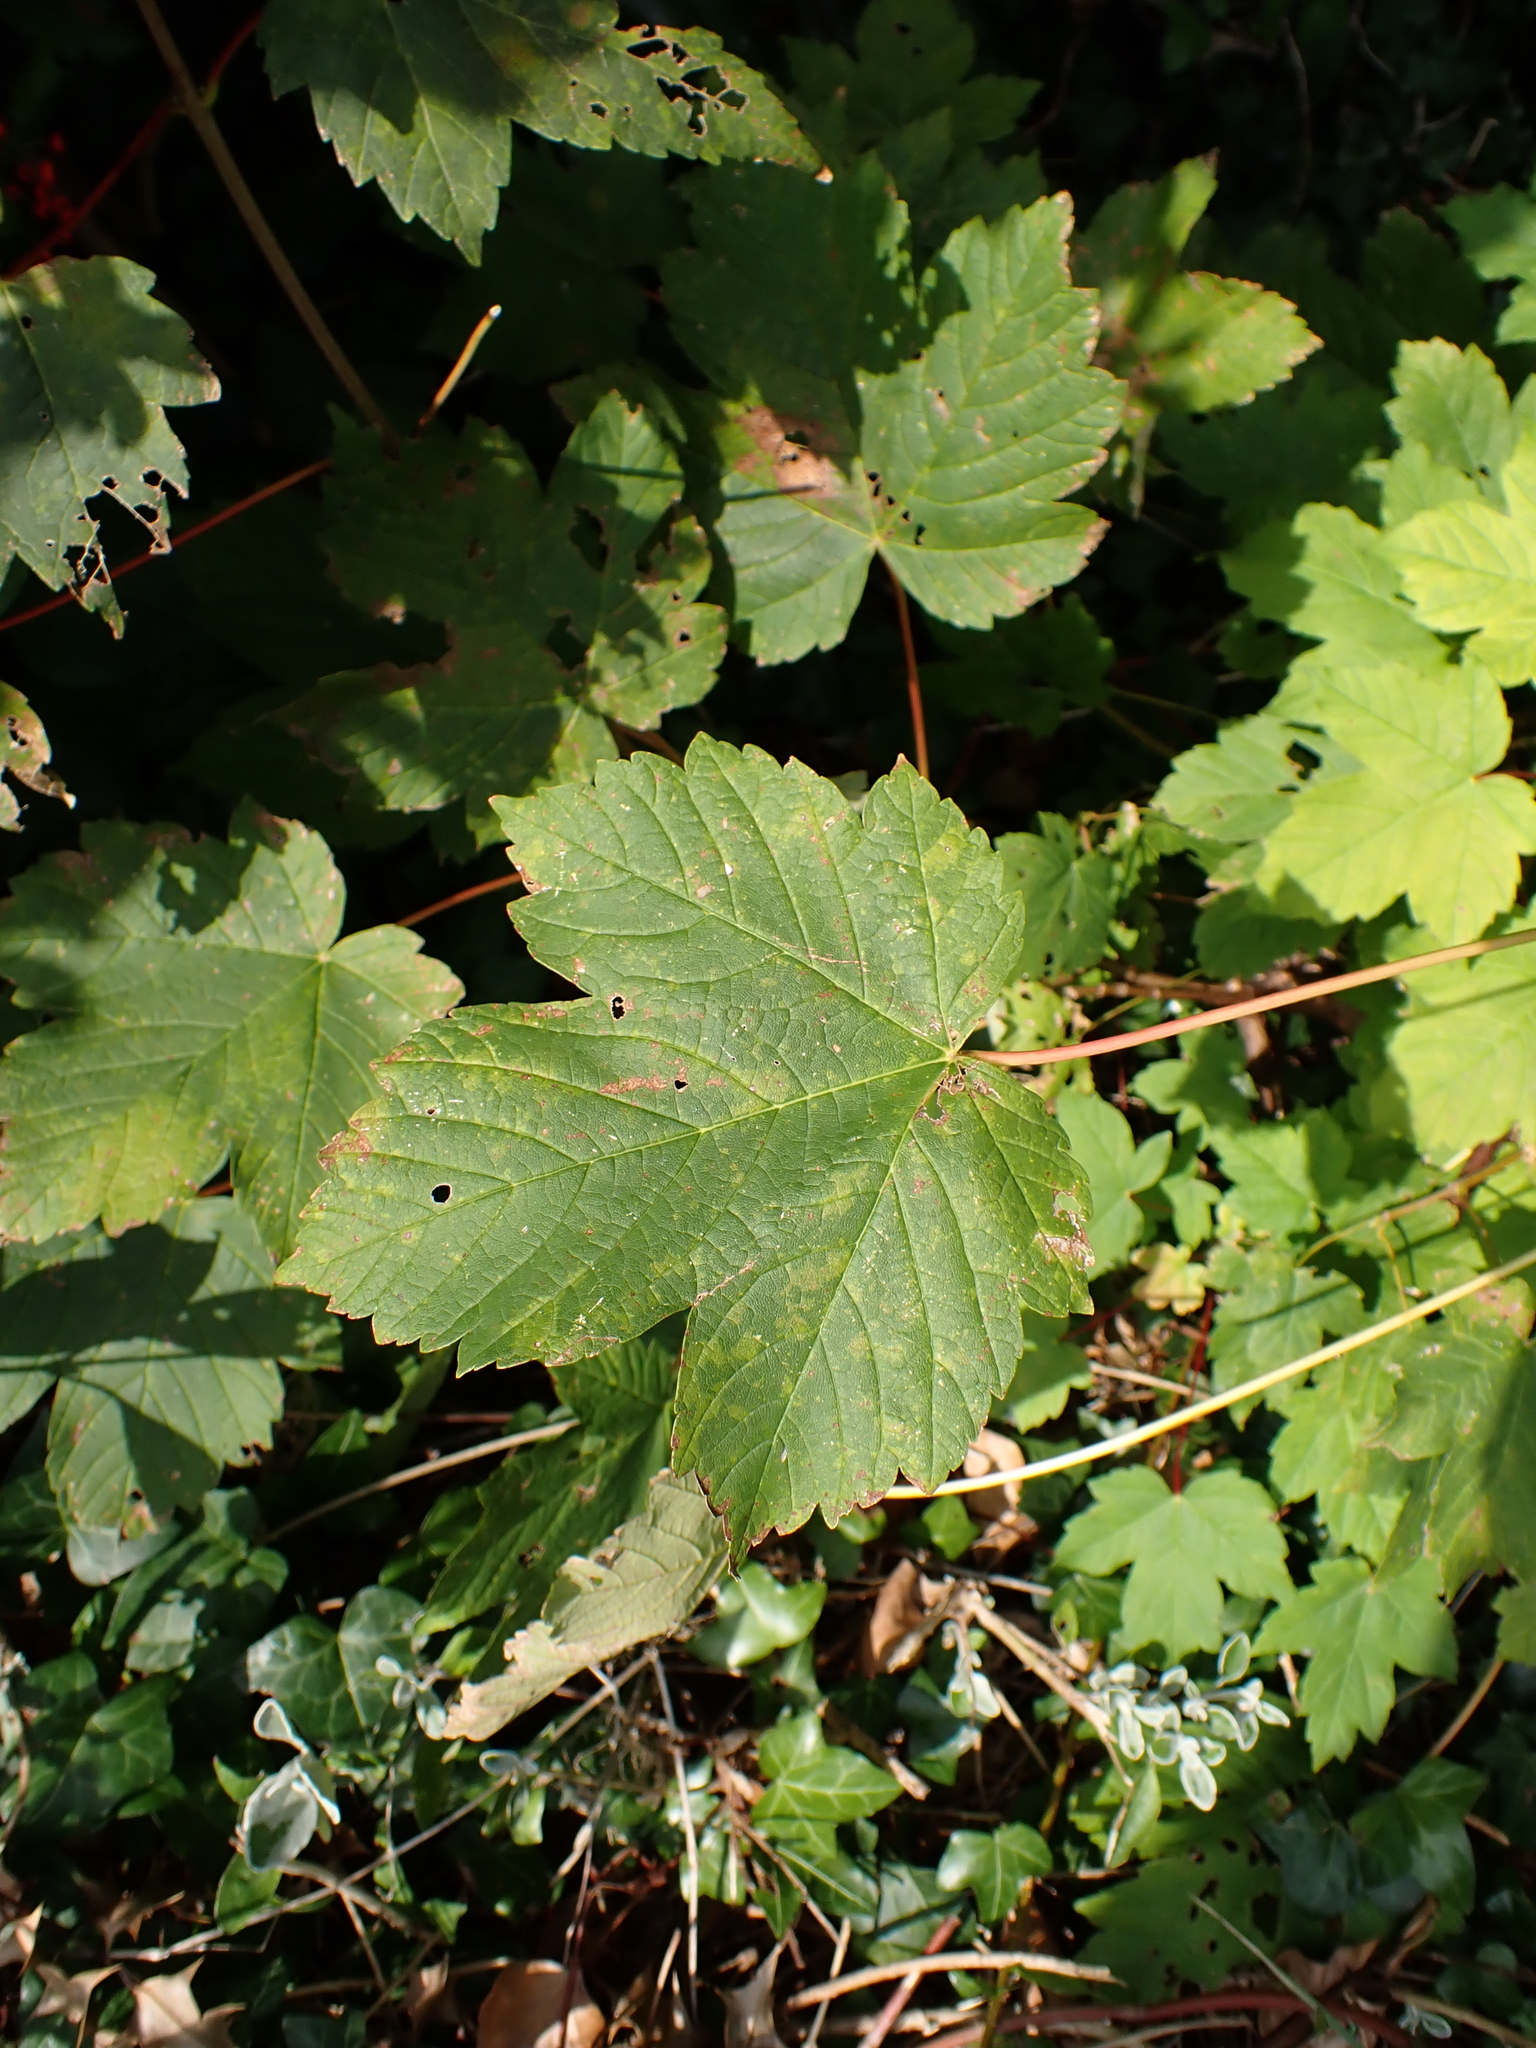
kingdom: Plantae
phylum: Tracheophyta
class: Magnoliopsida
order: Sapindales
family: Sapindaceae
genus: Acer
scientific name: Acer pseudoplatanus
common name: Sycamore
